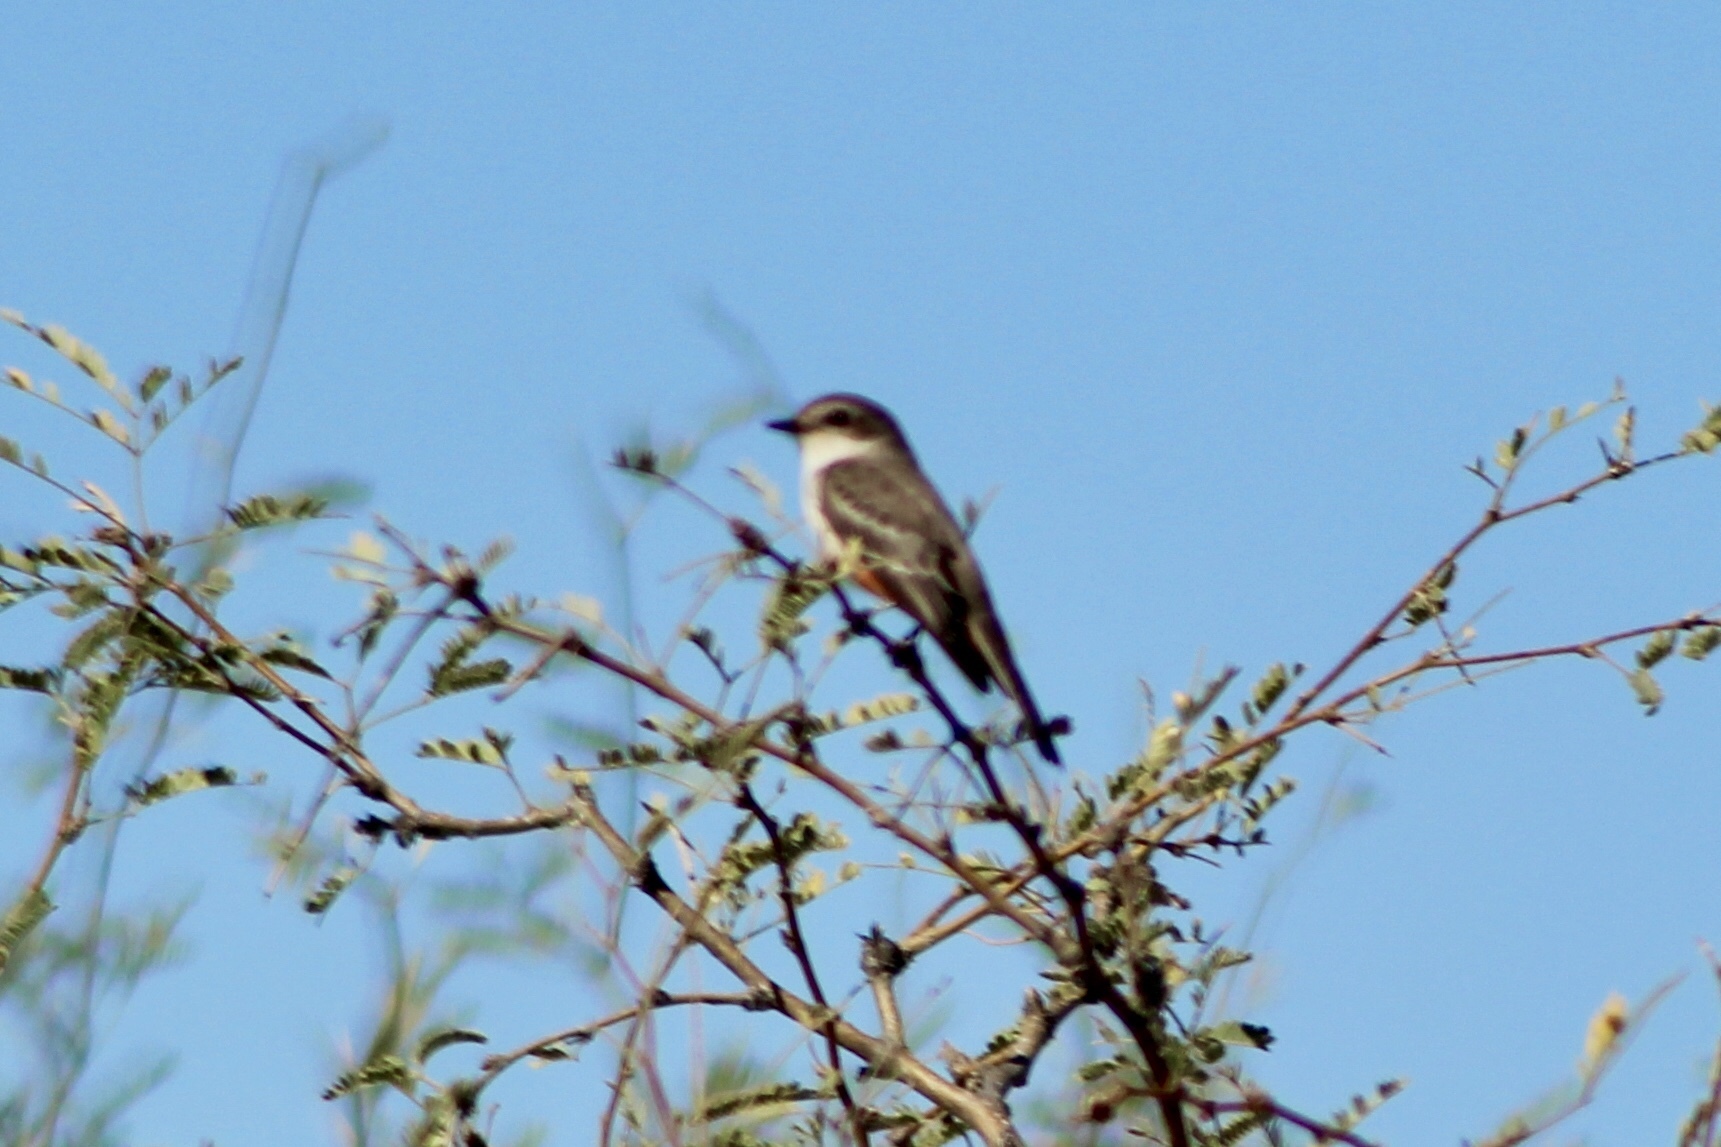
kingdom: Animalia
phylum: Chordata
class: Aves
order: Passeriformes
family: Tyrannidae
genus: Pyrocephalus
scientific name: Pyrocephalus rubinus
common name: Vermilion flycatcher
